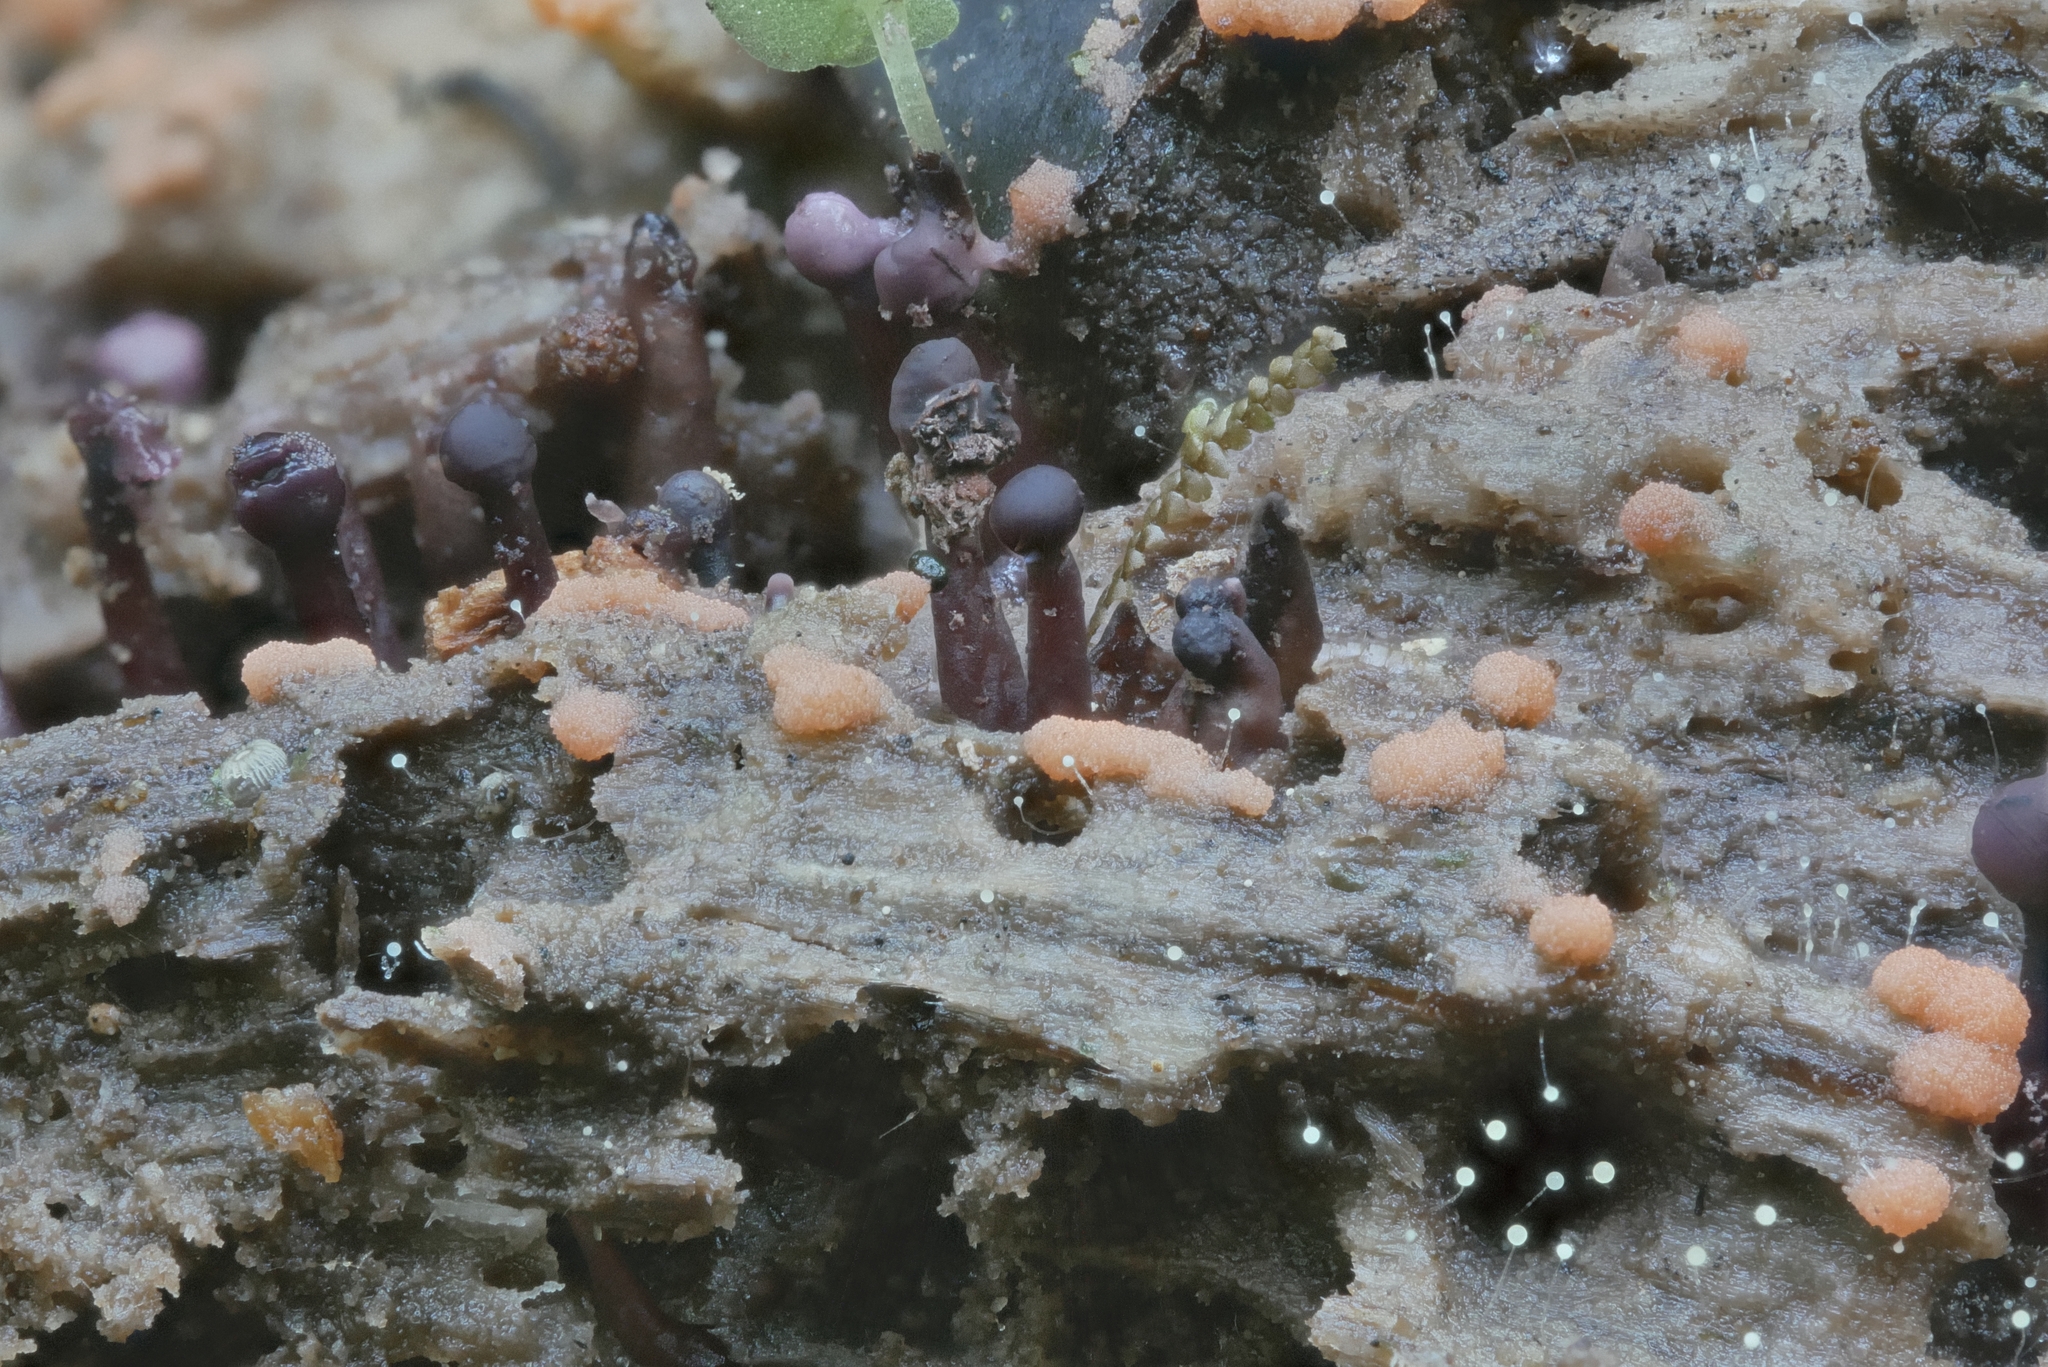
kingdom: Fungi
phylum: Ascomycota
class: Leotiomycetes
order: Helotiales
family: Gelatinodiscaceae
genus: Ascocoryne
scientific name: Ascocoryne trichophora
